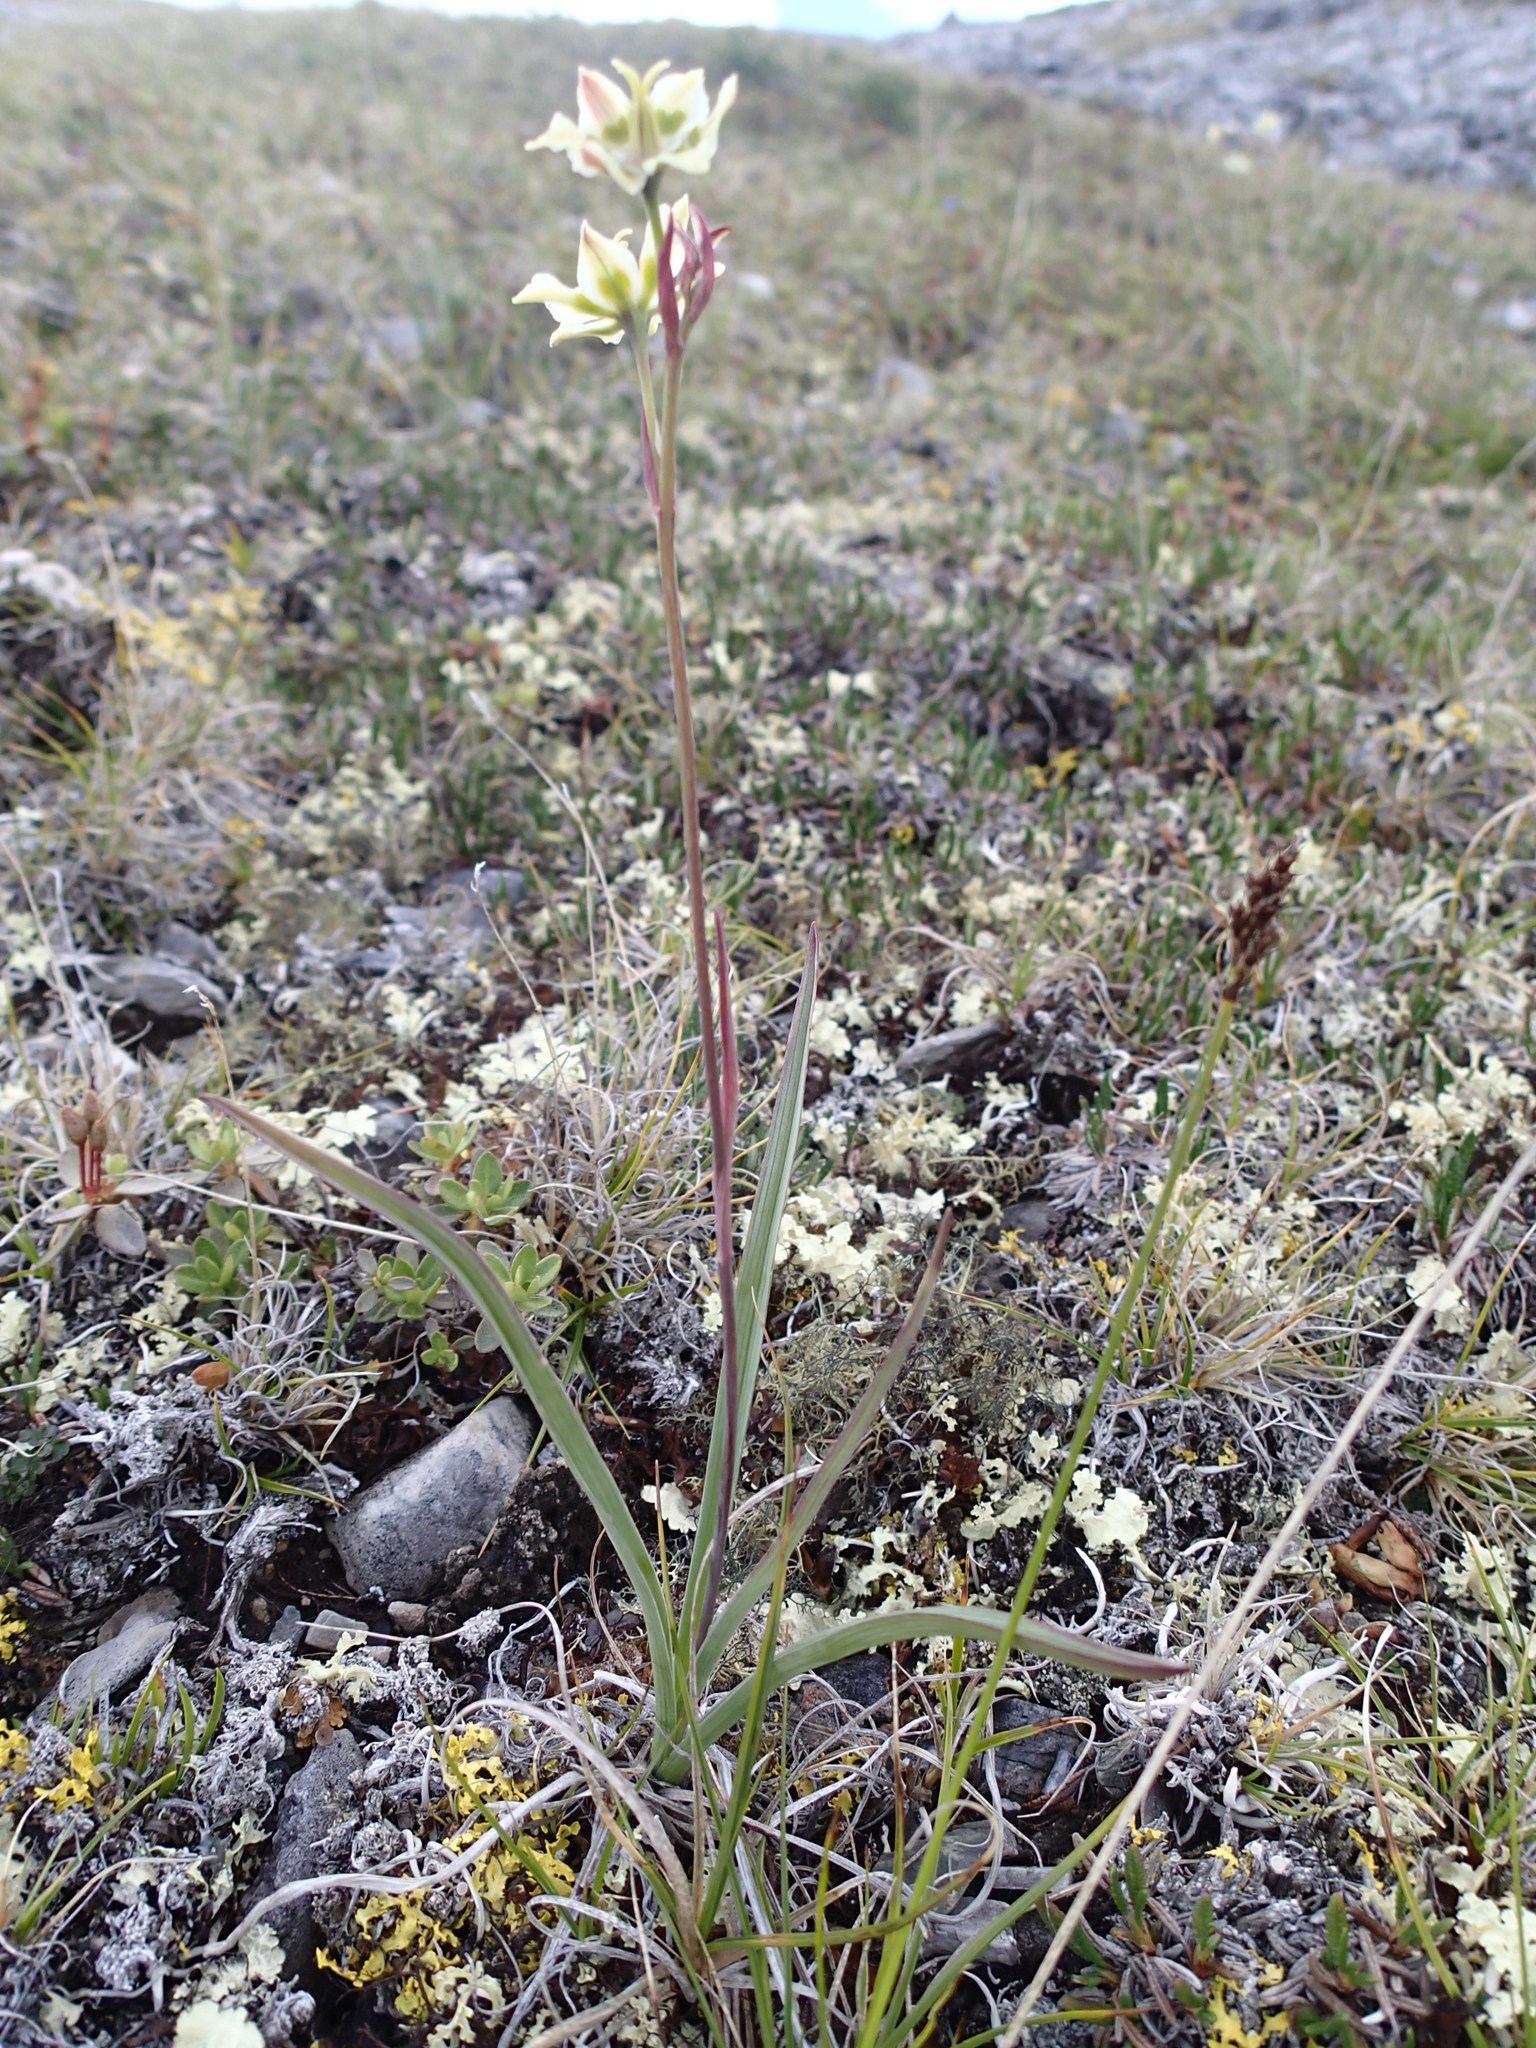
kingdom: Plantae
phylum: Tracheophyta
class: Liliopsida
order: Liliales
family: Melanthiaceae
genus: Anticlea
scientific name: Anticlea elegans
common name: Mountain death camas
